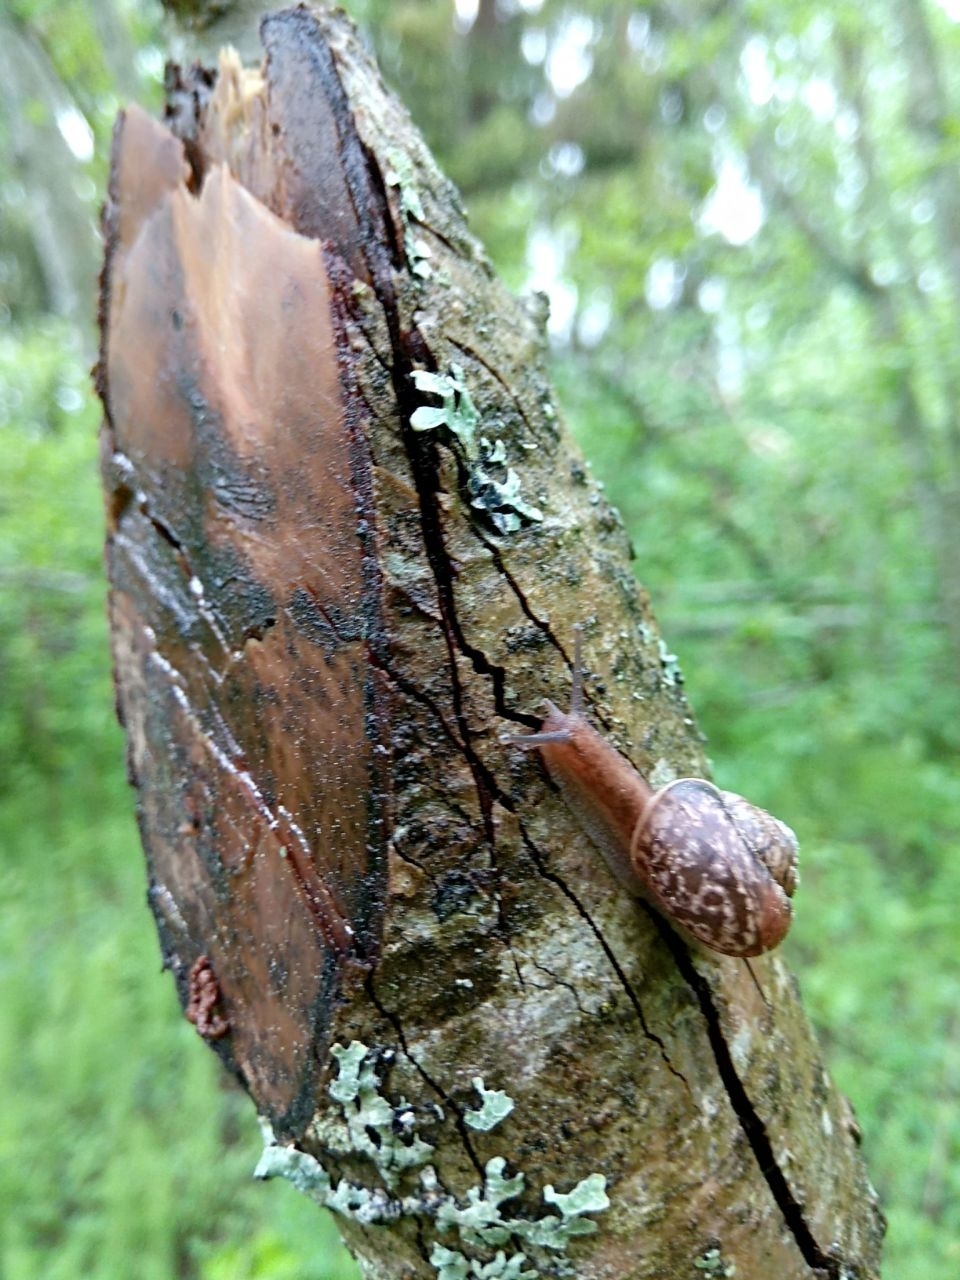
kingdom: Animalia
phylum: Mollusca
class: Gastropoda
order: Stylommatophora
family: Camaenidae
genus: Fruticicola
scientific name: Fruticicola fruticum
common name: Bush snail
